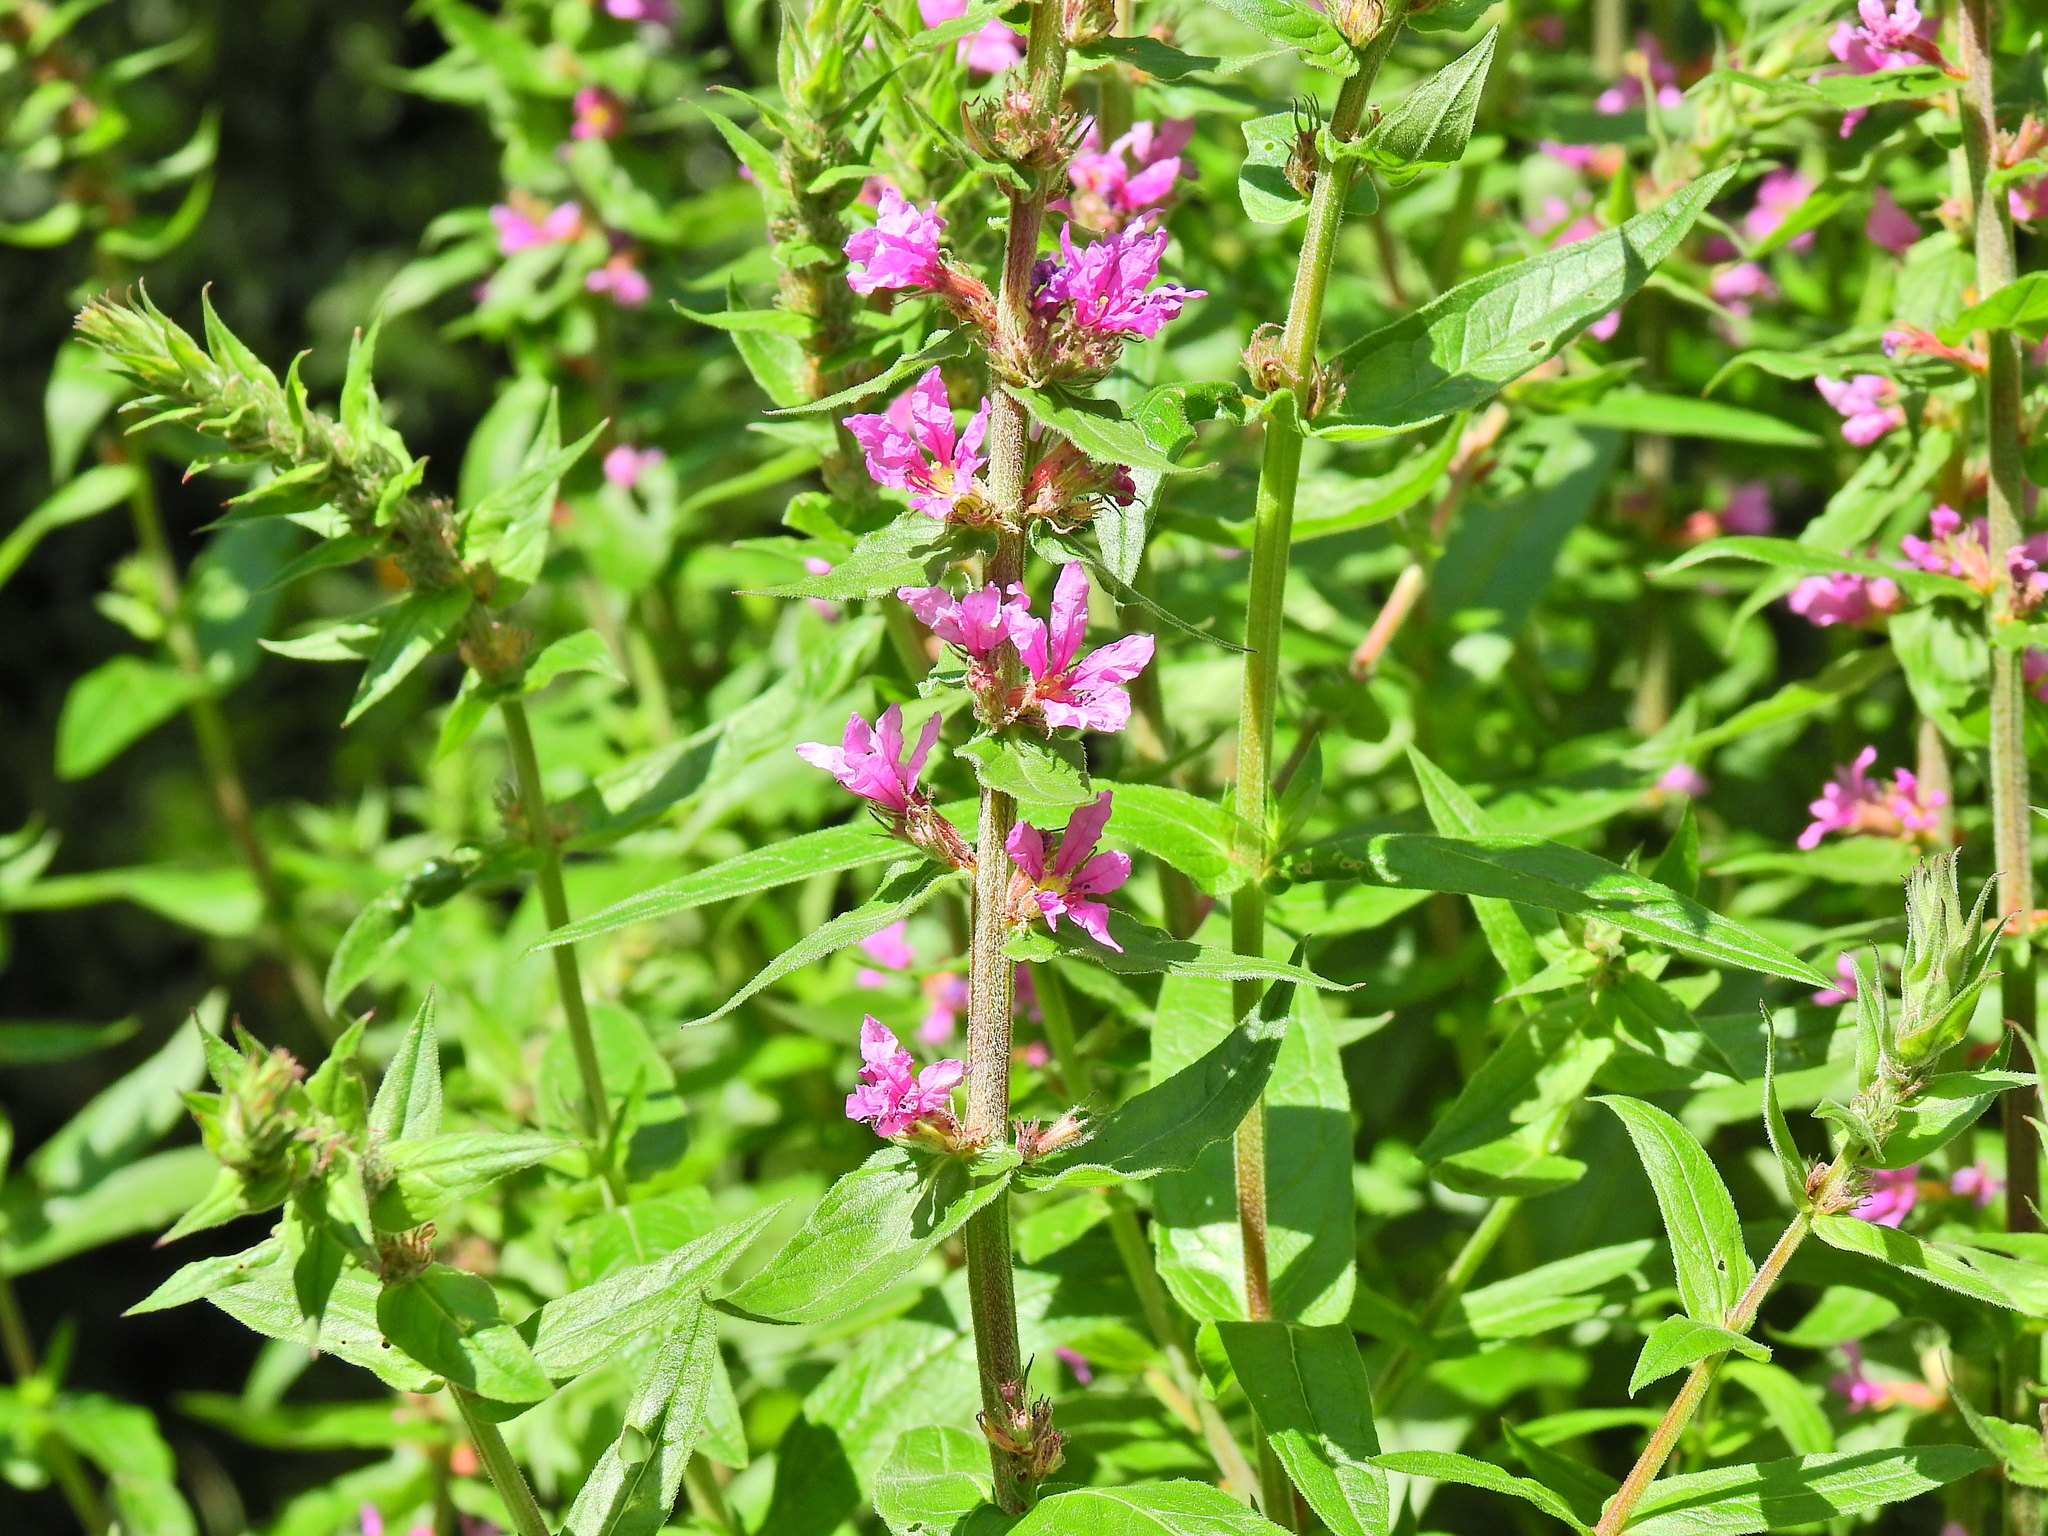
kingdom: Plantae
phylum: Tracheophyta
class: Magnoliopsida
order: Myrtales
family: Lythraceae
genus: Lythrum
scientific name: Lythrum salicaria
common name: Purple loosestrife
